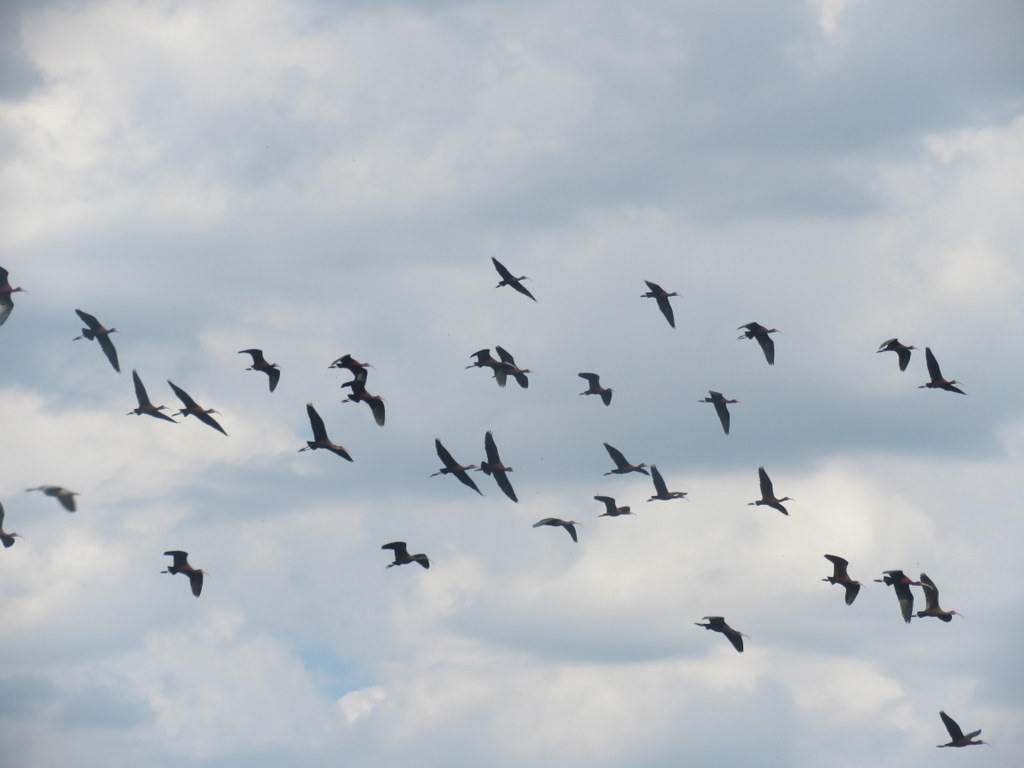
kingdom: Animalia
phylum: Chordata
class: Aves
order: Pelecaniformes
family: Threskiornithidae
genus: Plegadis
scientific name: Plegadis chihi
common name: White-faced ibis
